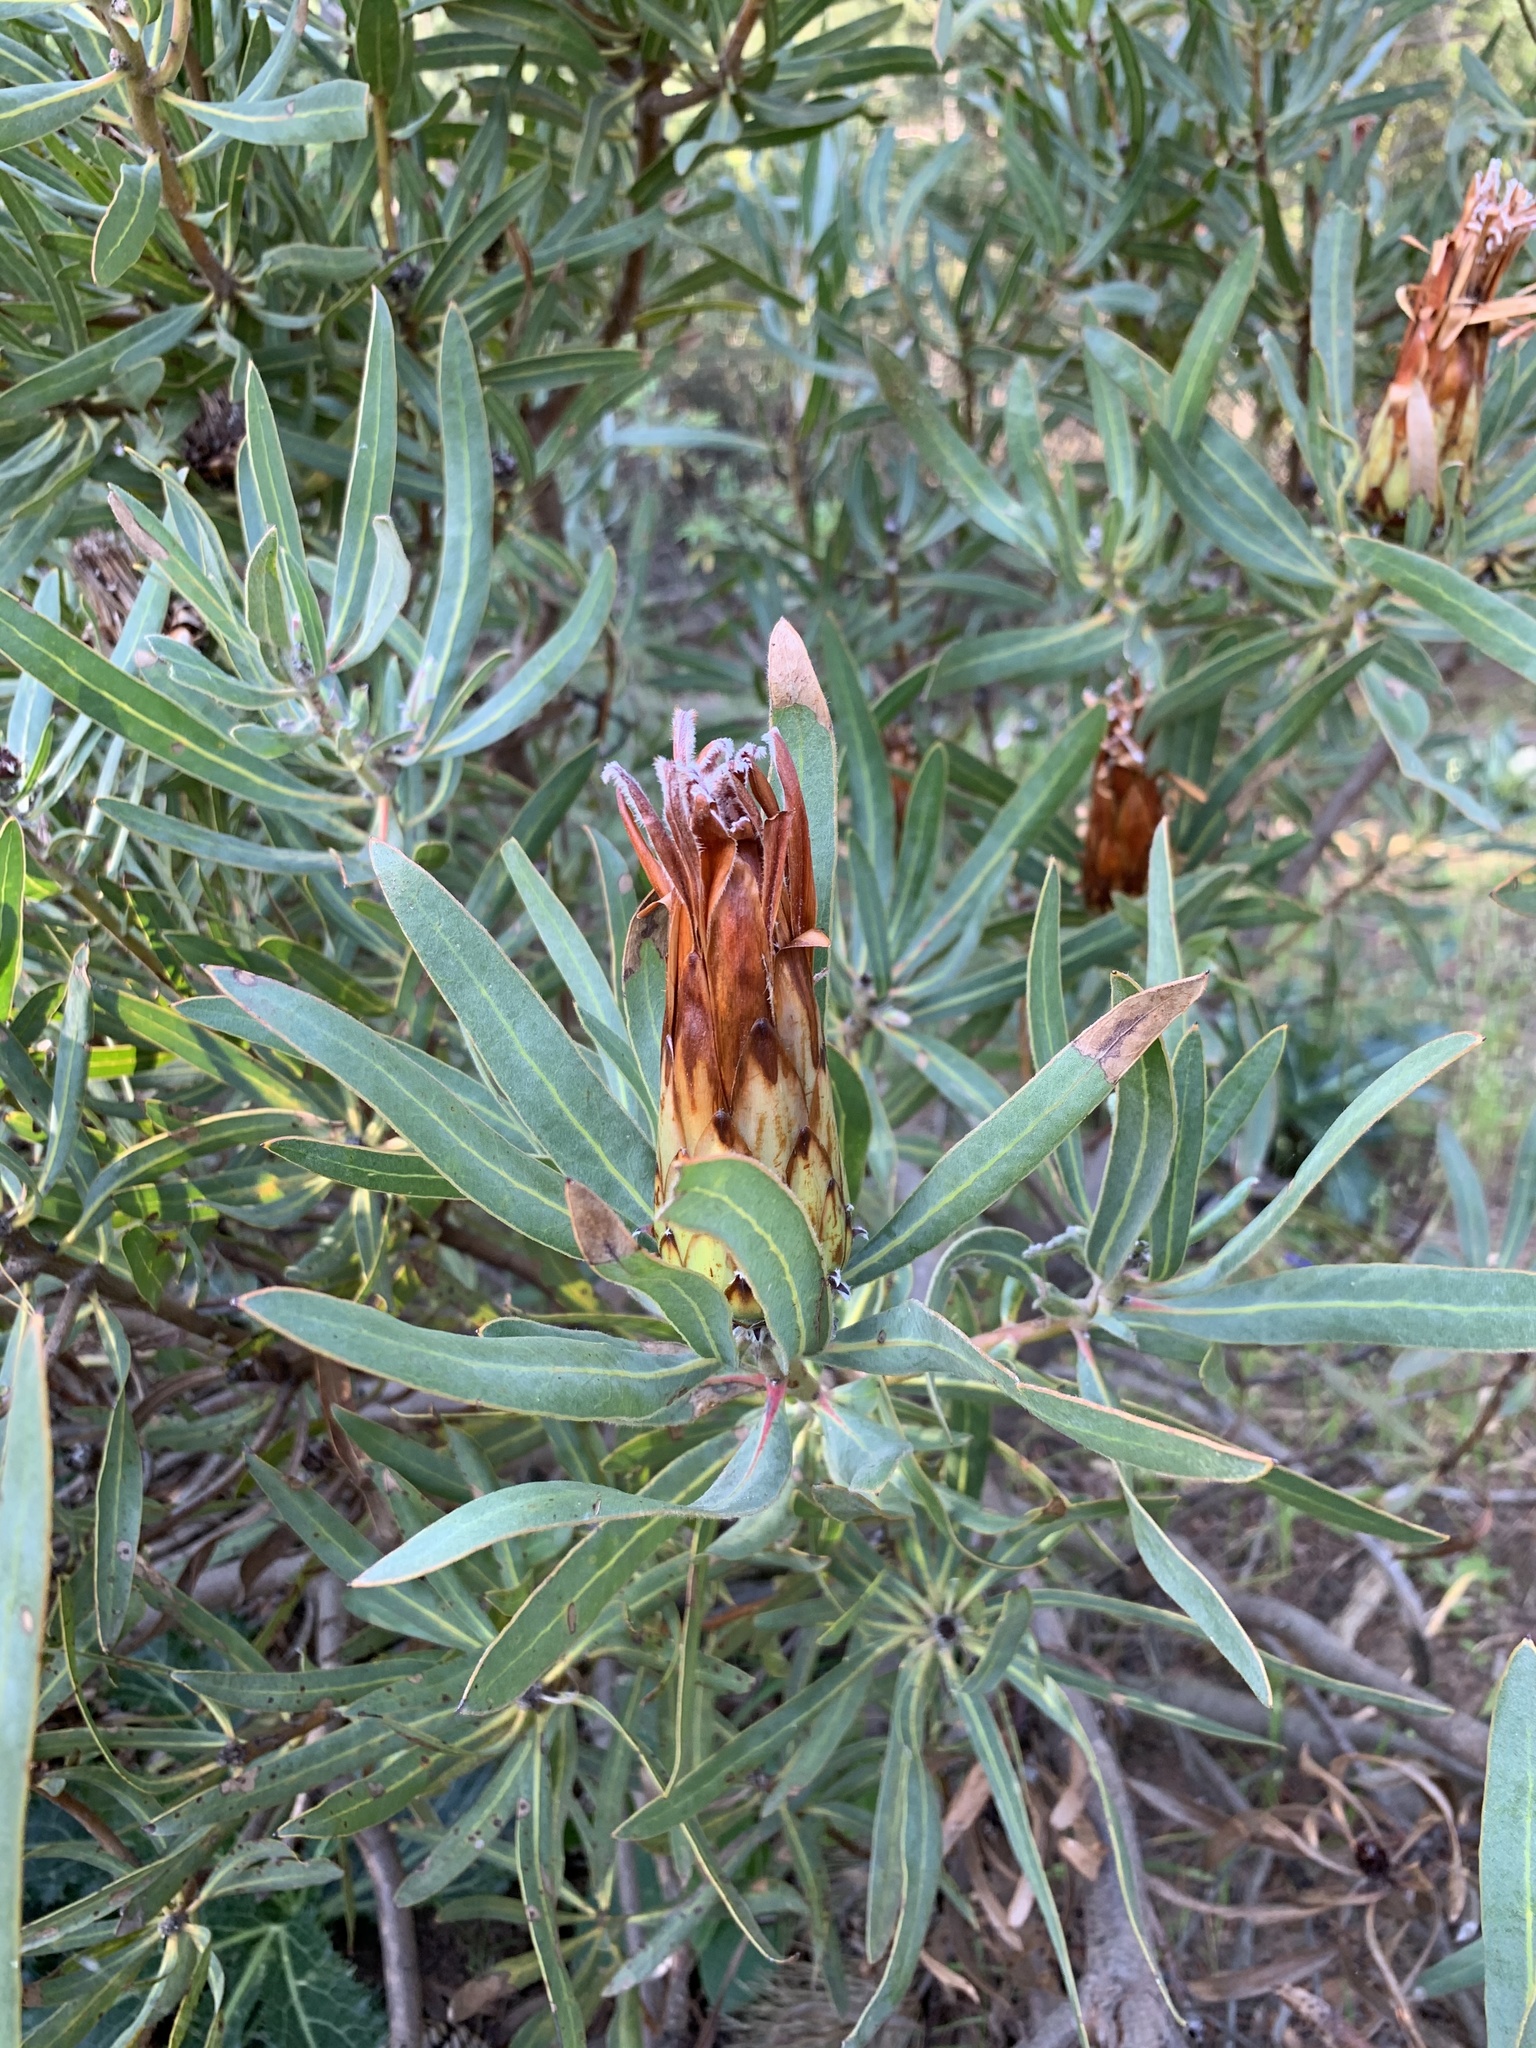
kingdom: Plantae
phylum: Tracheophyta
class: Magnoliopsida
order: Proteales
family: Proteaceae
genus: Protea
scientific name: Protea burchellii
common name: Burchell's sugarbush
